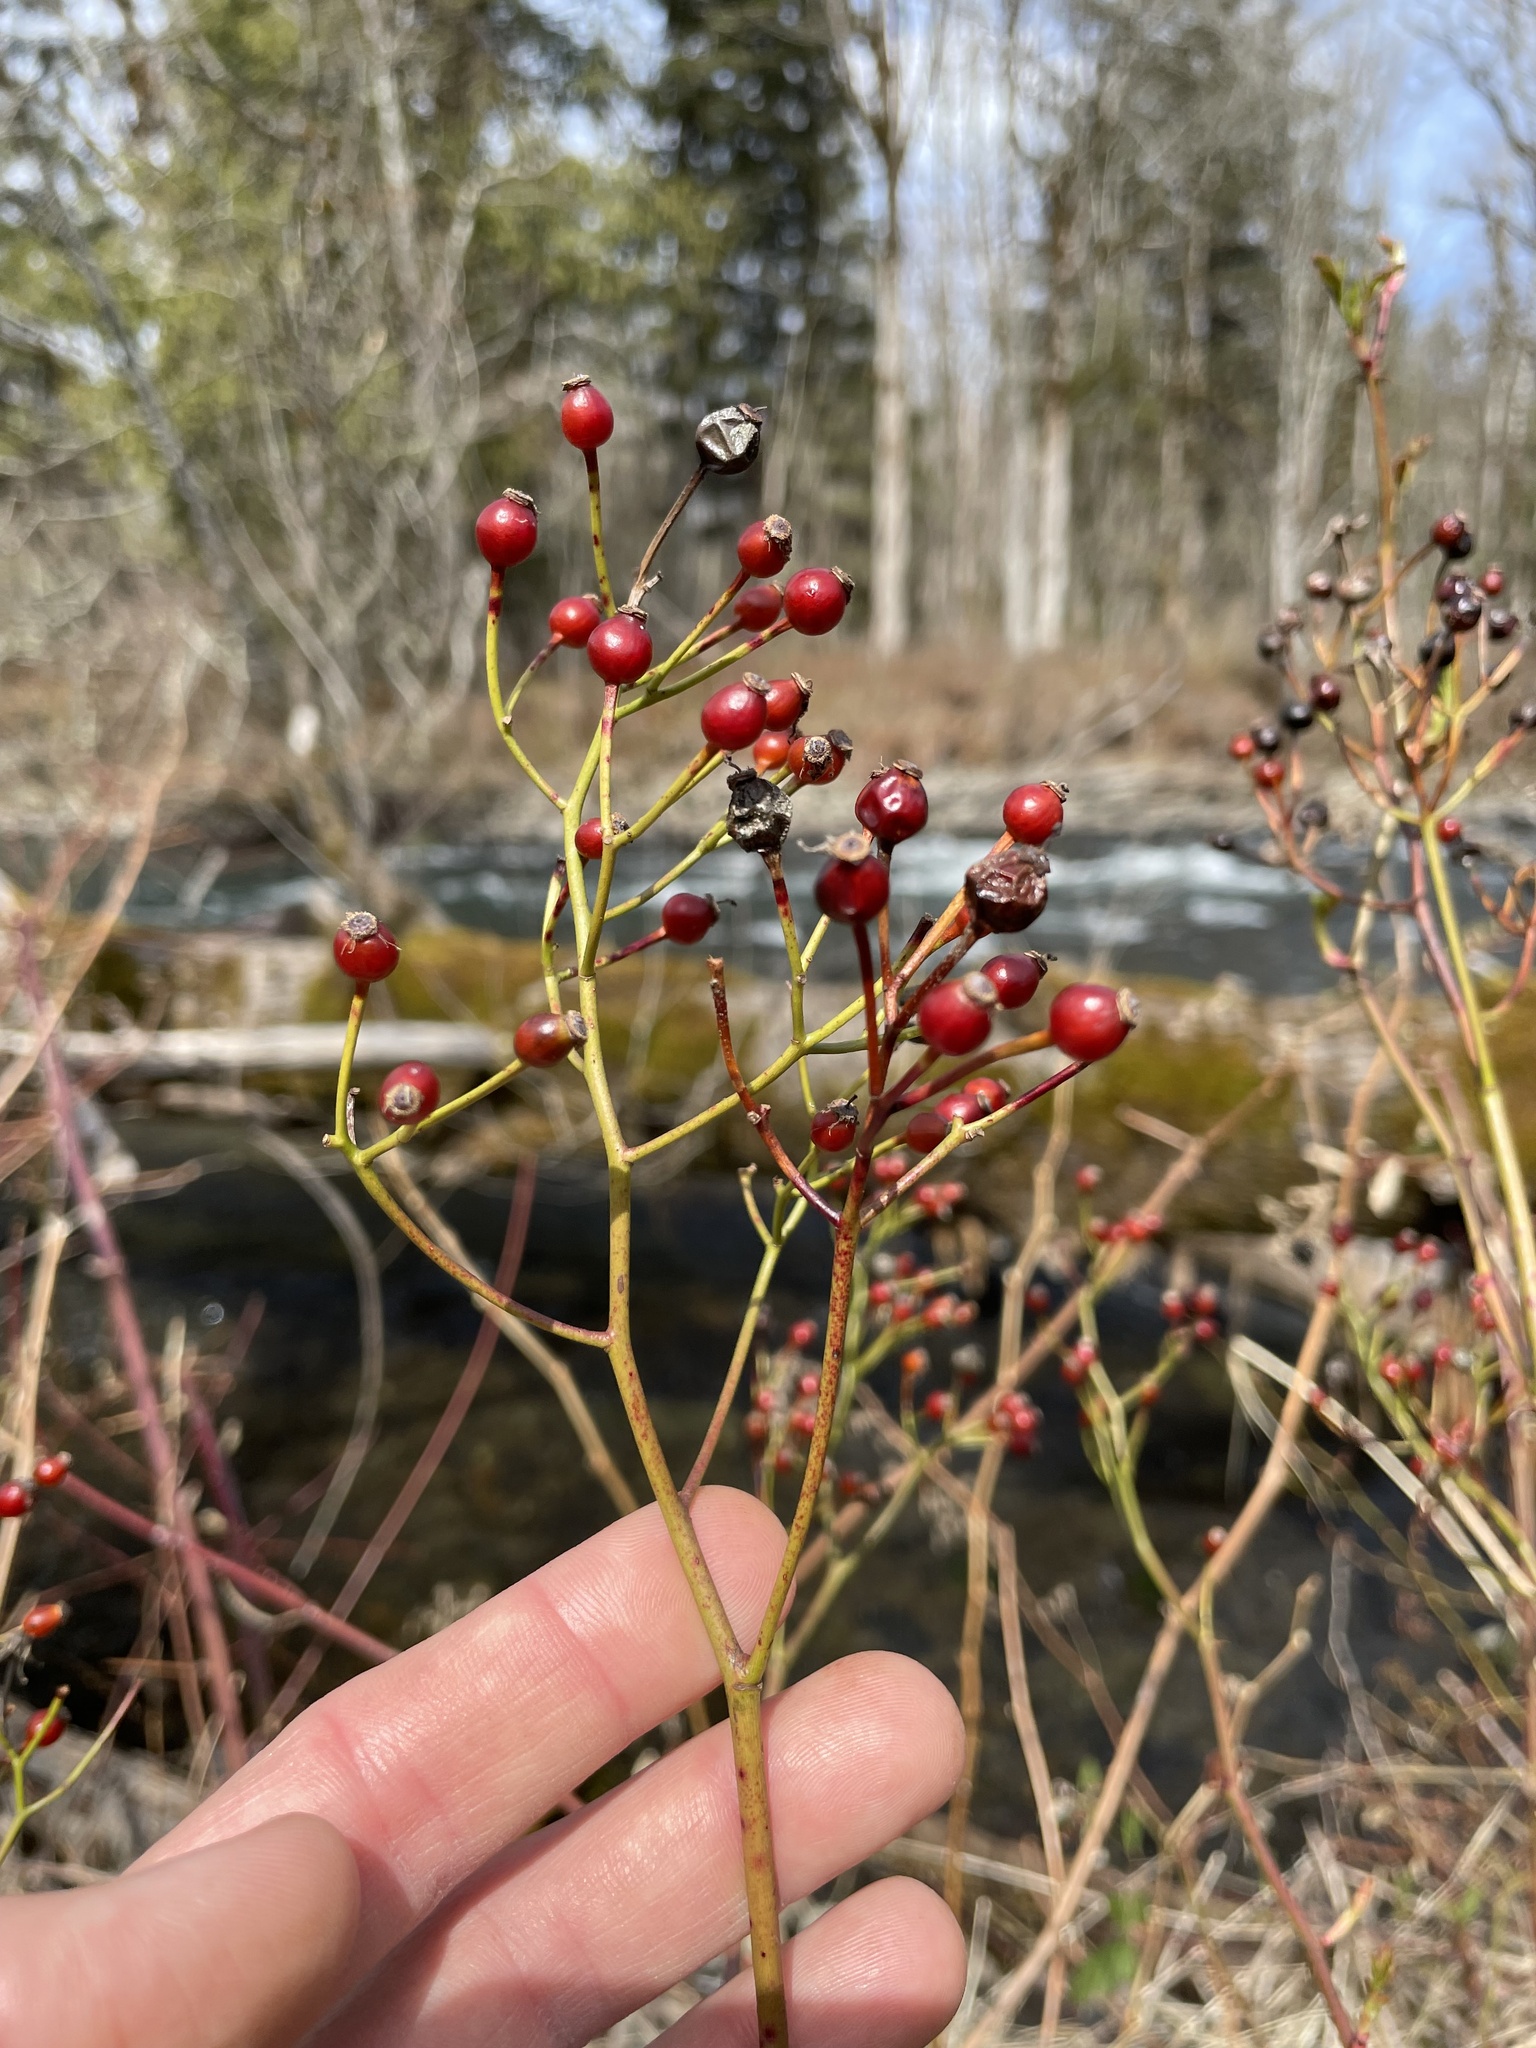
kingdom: Plantae
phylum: Tracheophyta
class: Magnoliopsida
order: Rosales
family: Rosaceae
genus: Rosa
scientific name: Rosa multiflora
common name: Multiflora rose
